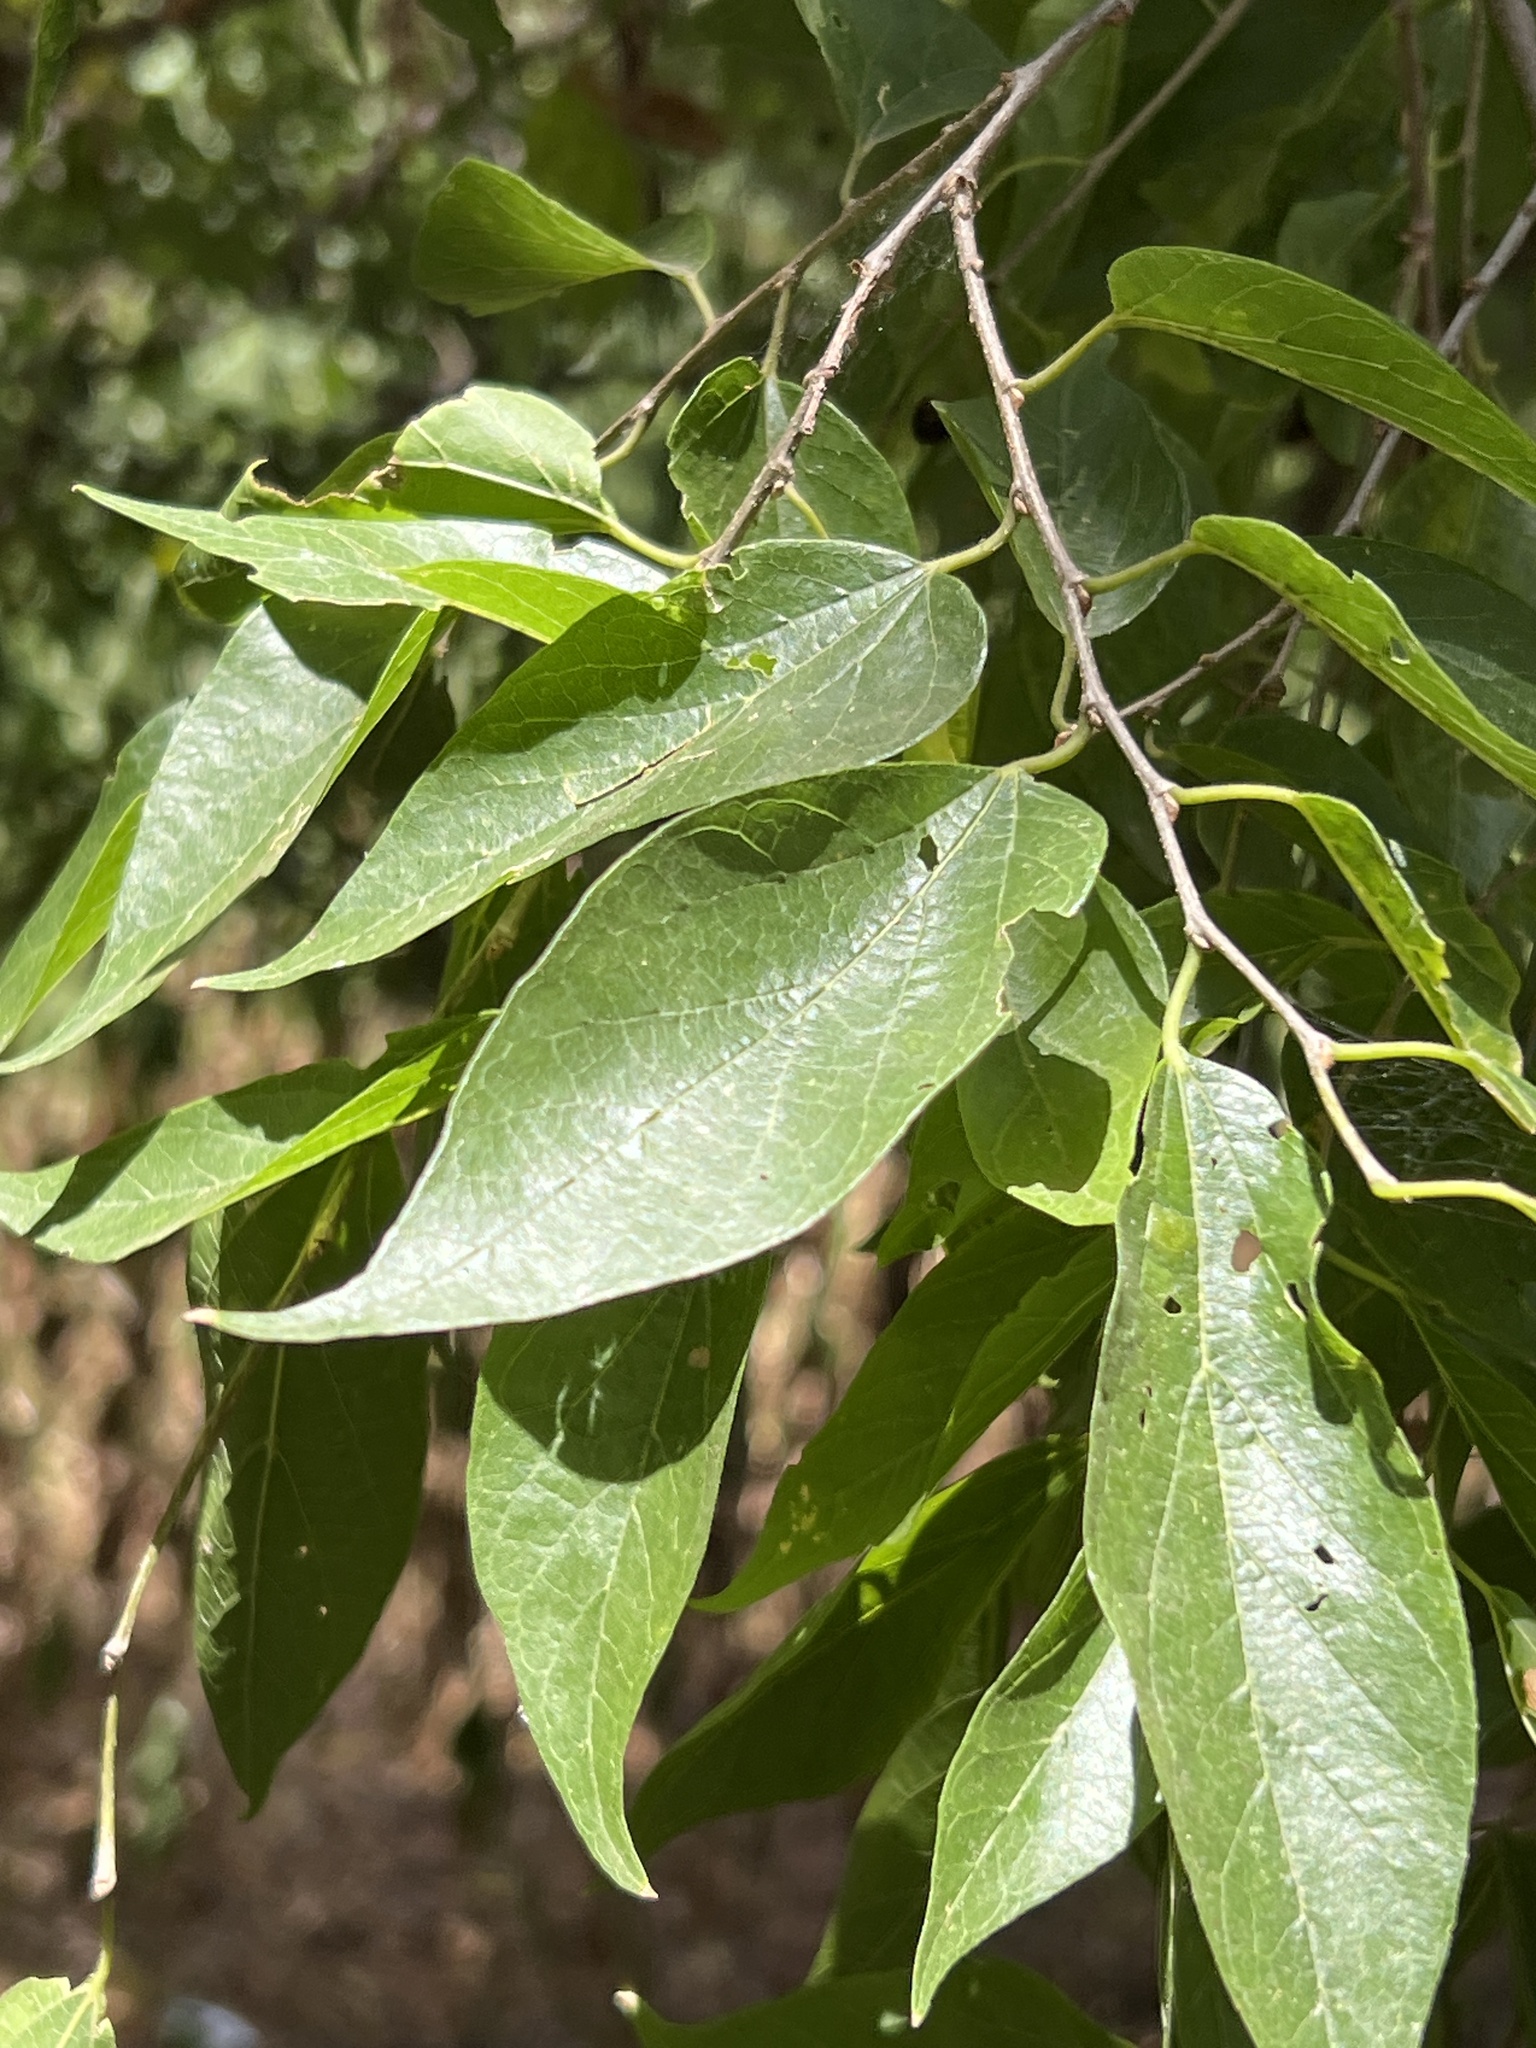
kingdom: Plantae
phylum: Tracheophyta
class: Magnoliopsida
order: Rosales
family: Cannabaceae
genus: Celtis
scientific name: Celtis laevigata
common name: Sugarberry
